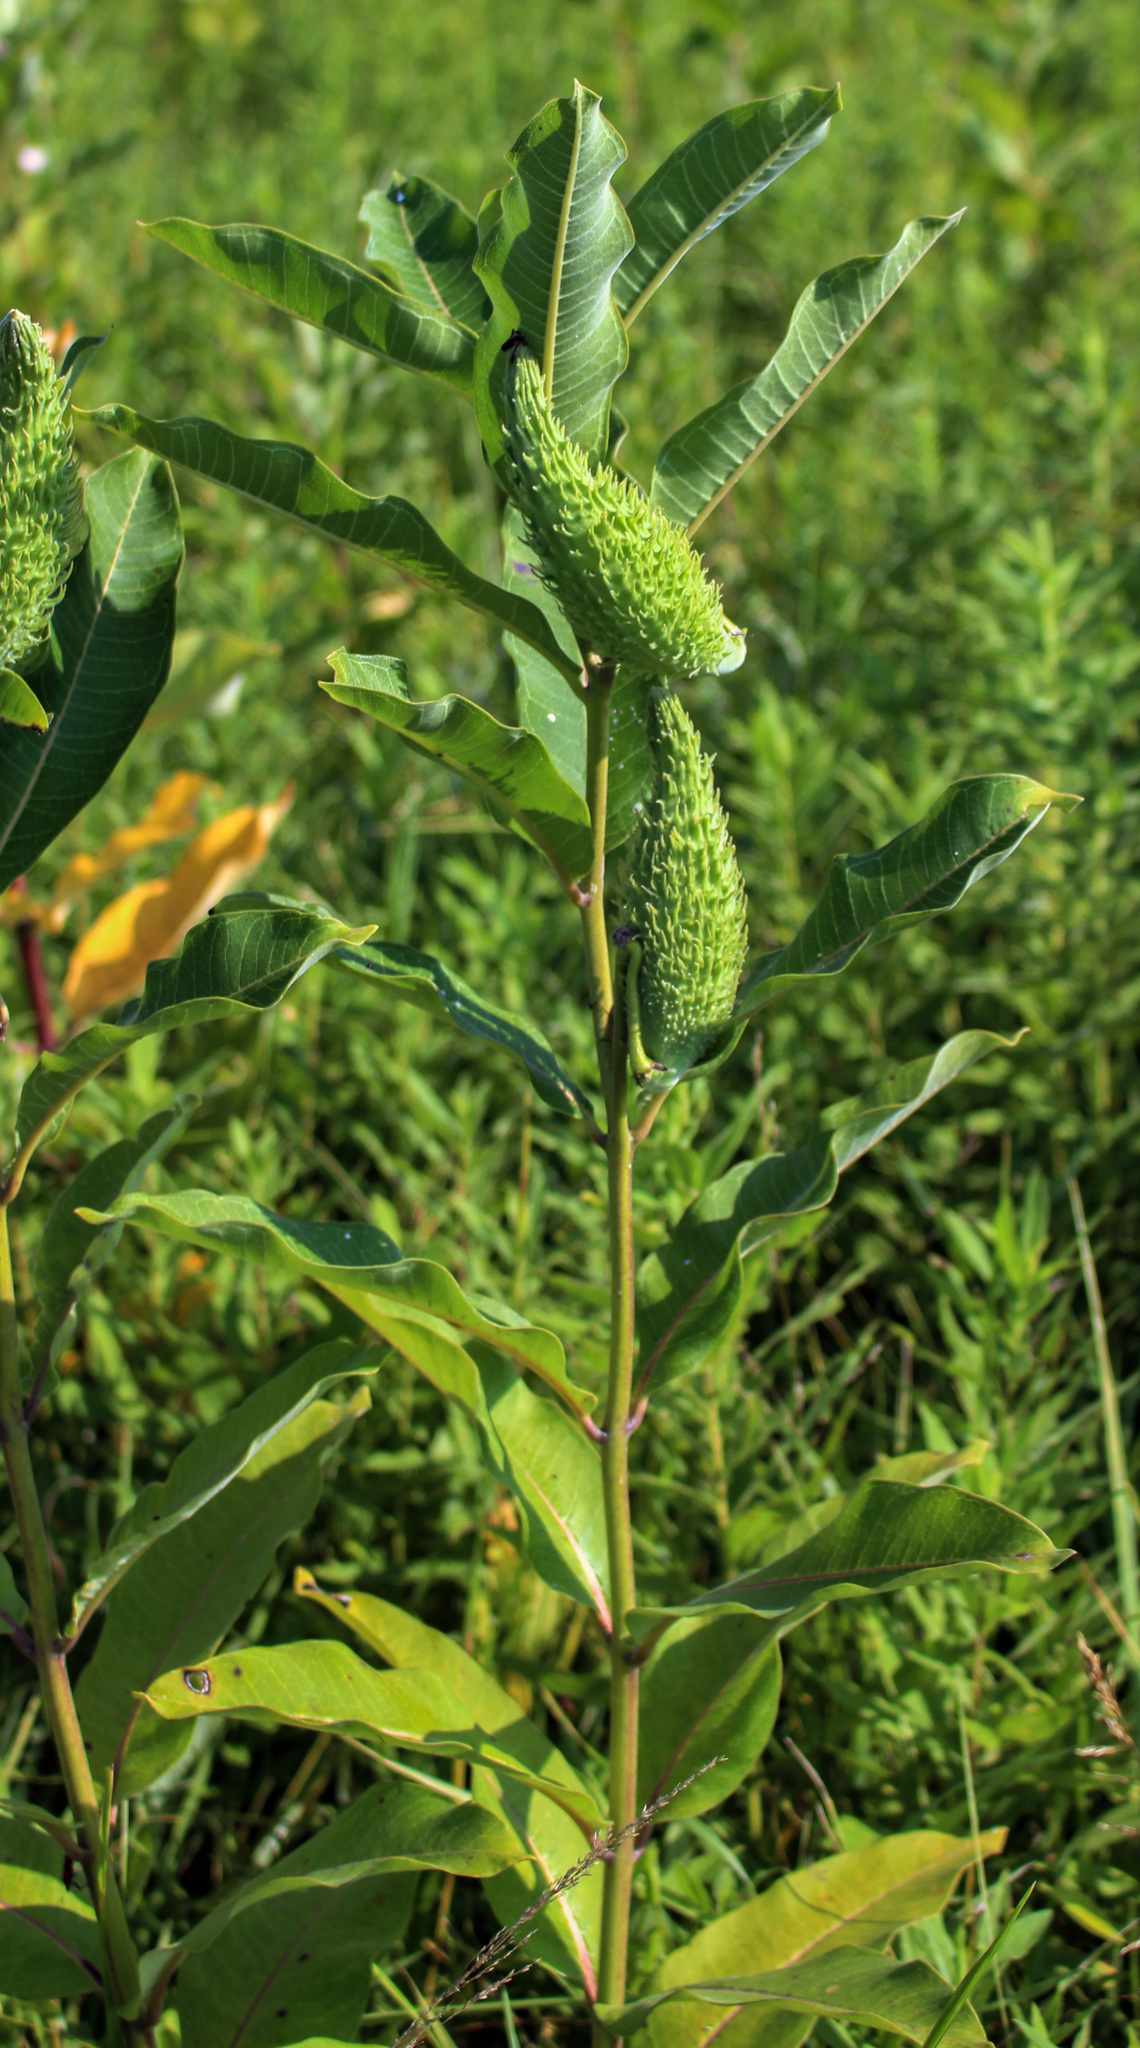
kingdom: Plantae
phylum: Tracheophyta
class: Magnoliopsida
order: Gentianales
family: Apocynaceae
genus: Asclepias
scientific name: Asclepias syriaca
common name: Common milkweed
